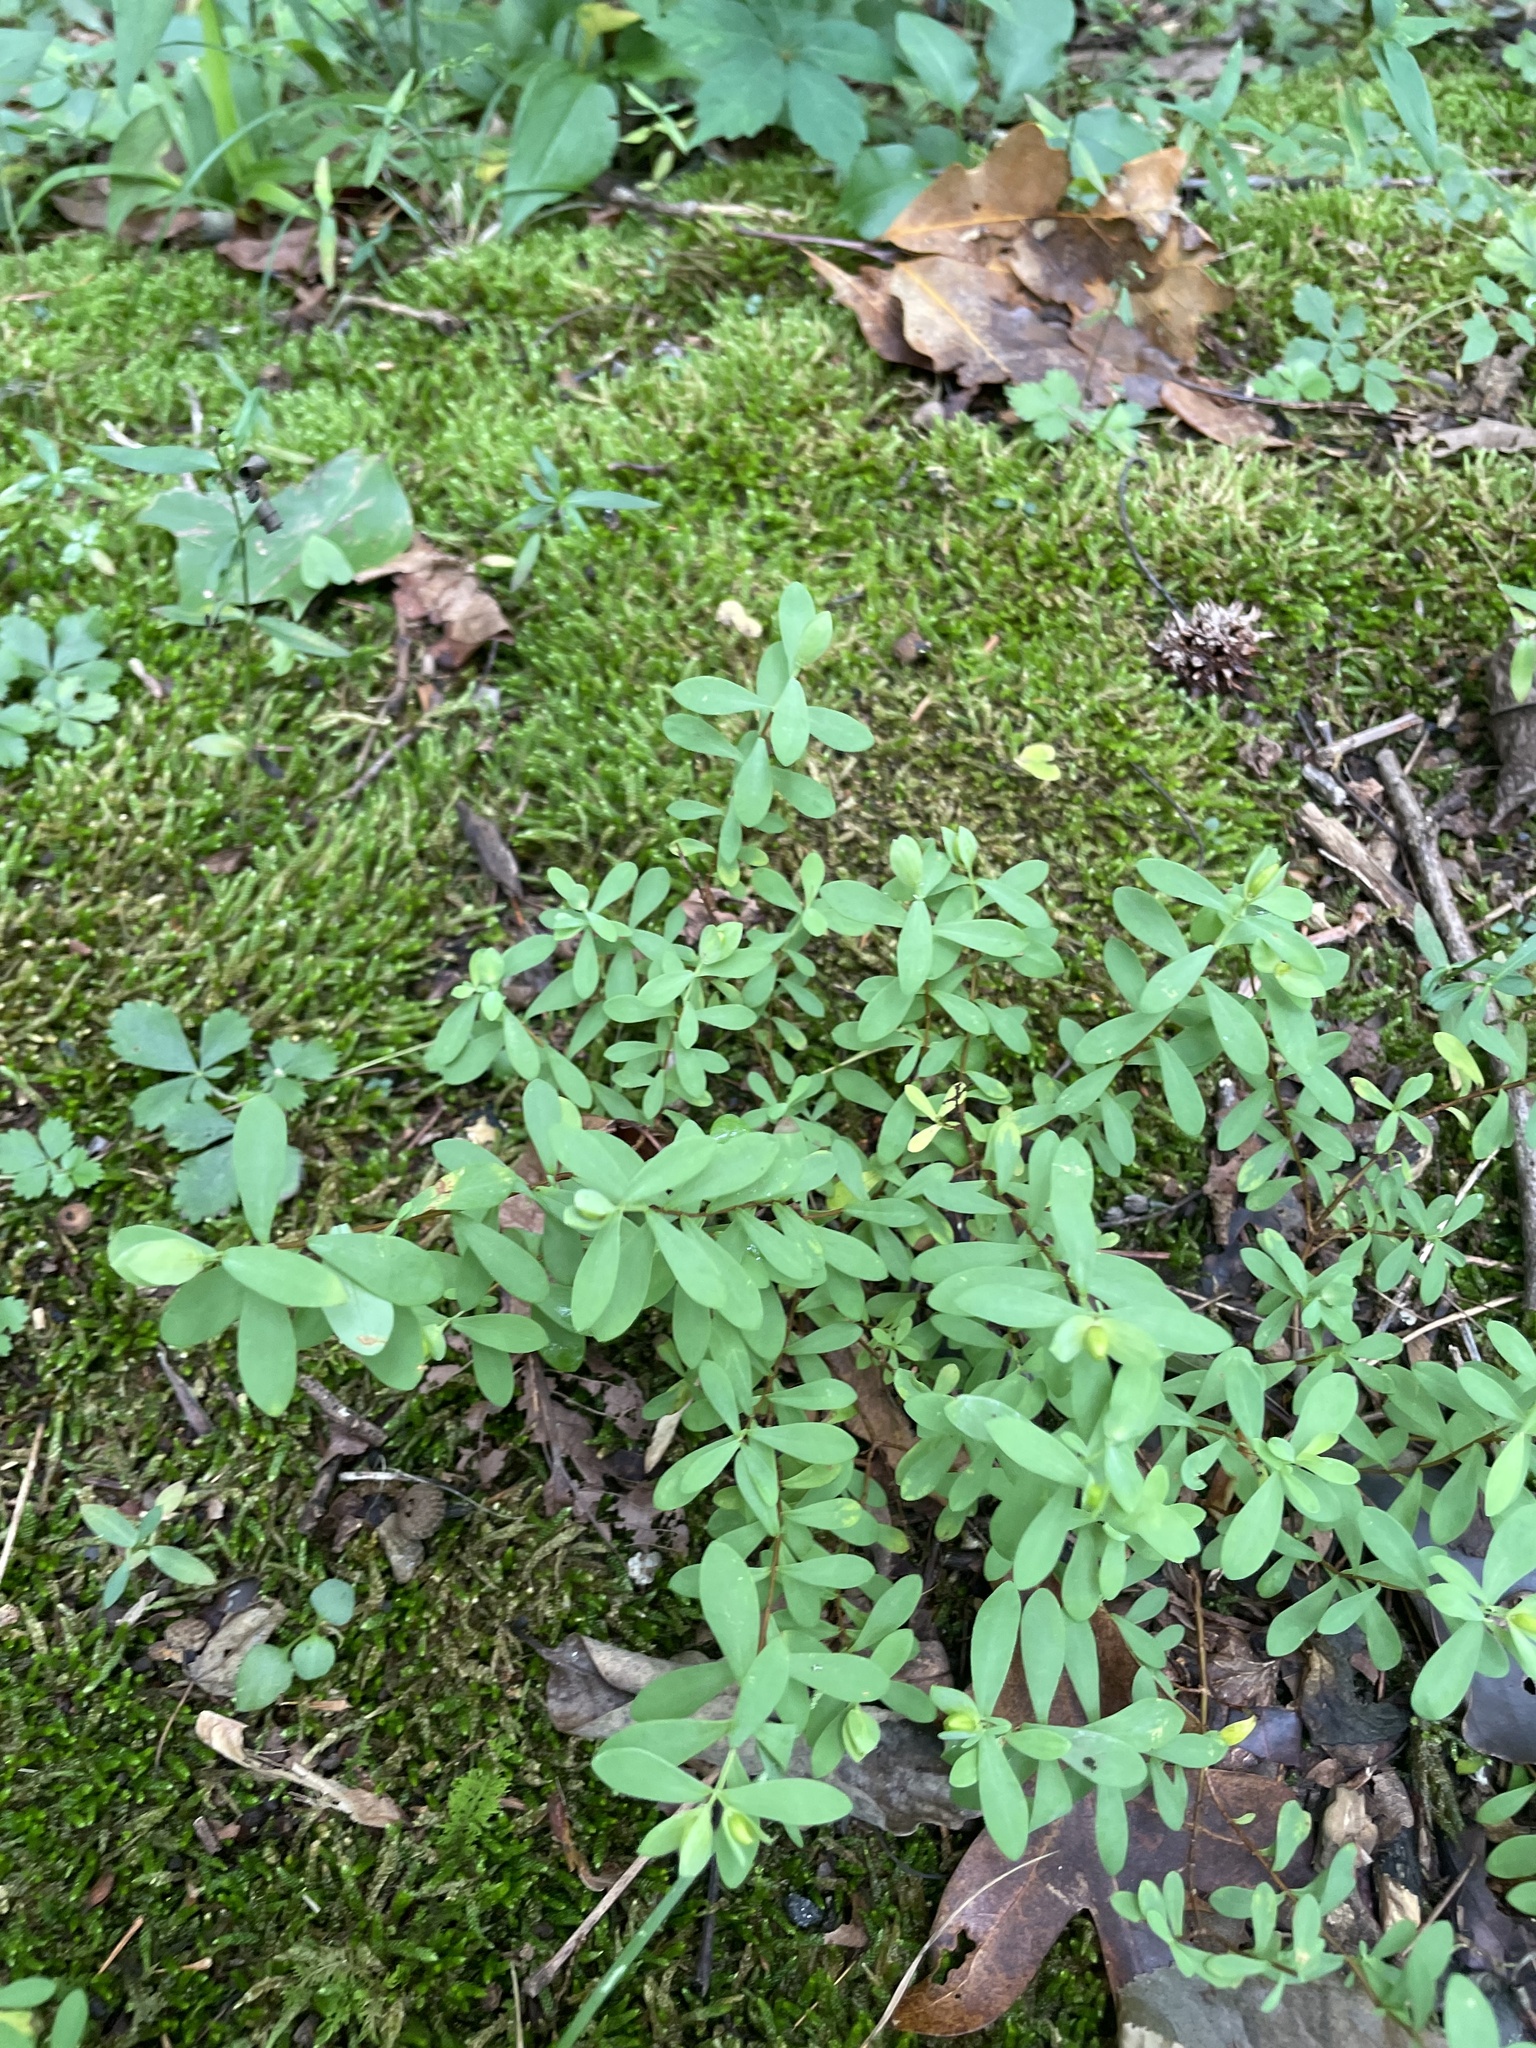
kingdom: Plantae
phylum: Tracheophyta
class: Magnoliopsida
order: Malpighiales
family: Hypericaceae
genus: Hypericum
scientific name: Hypericum hypericoides
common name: St. andrew's cross
